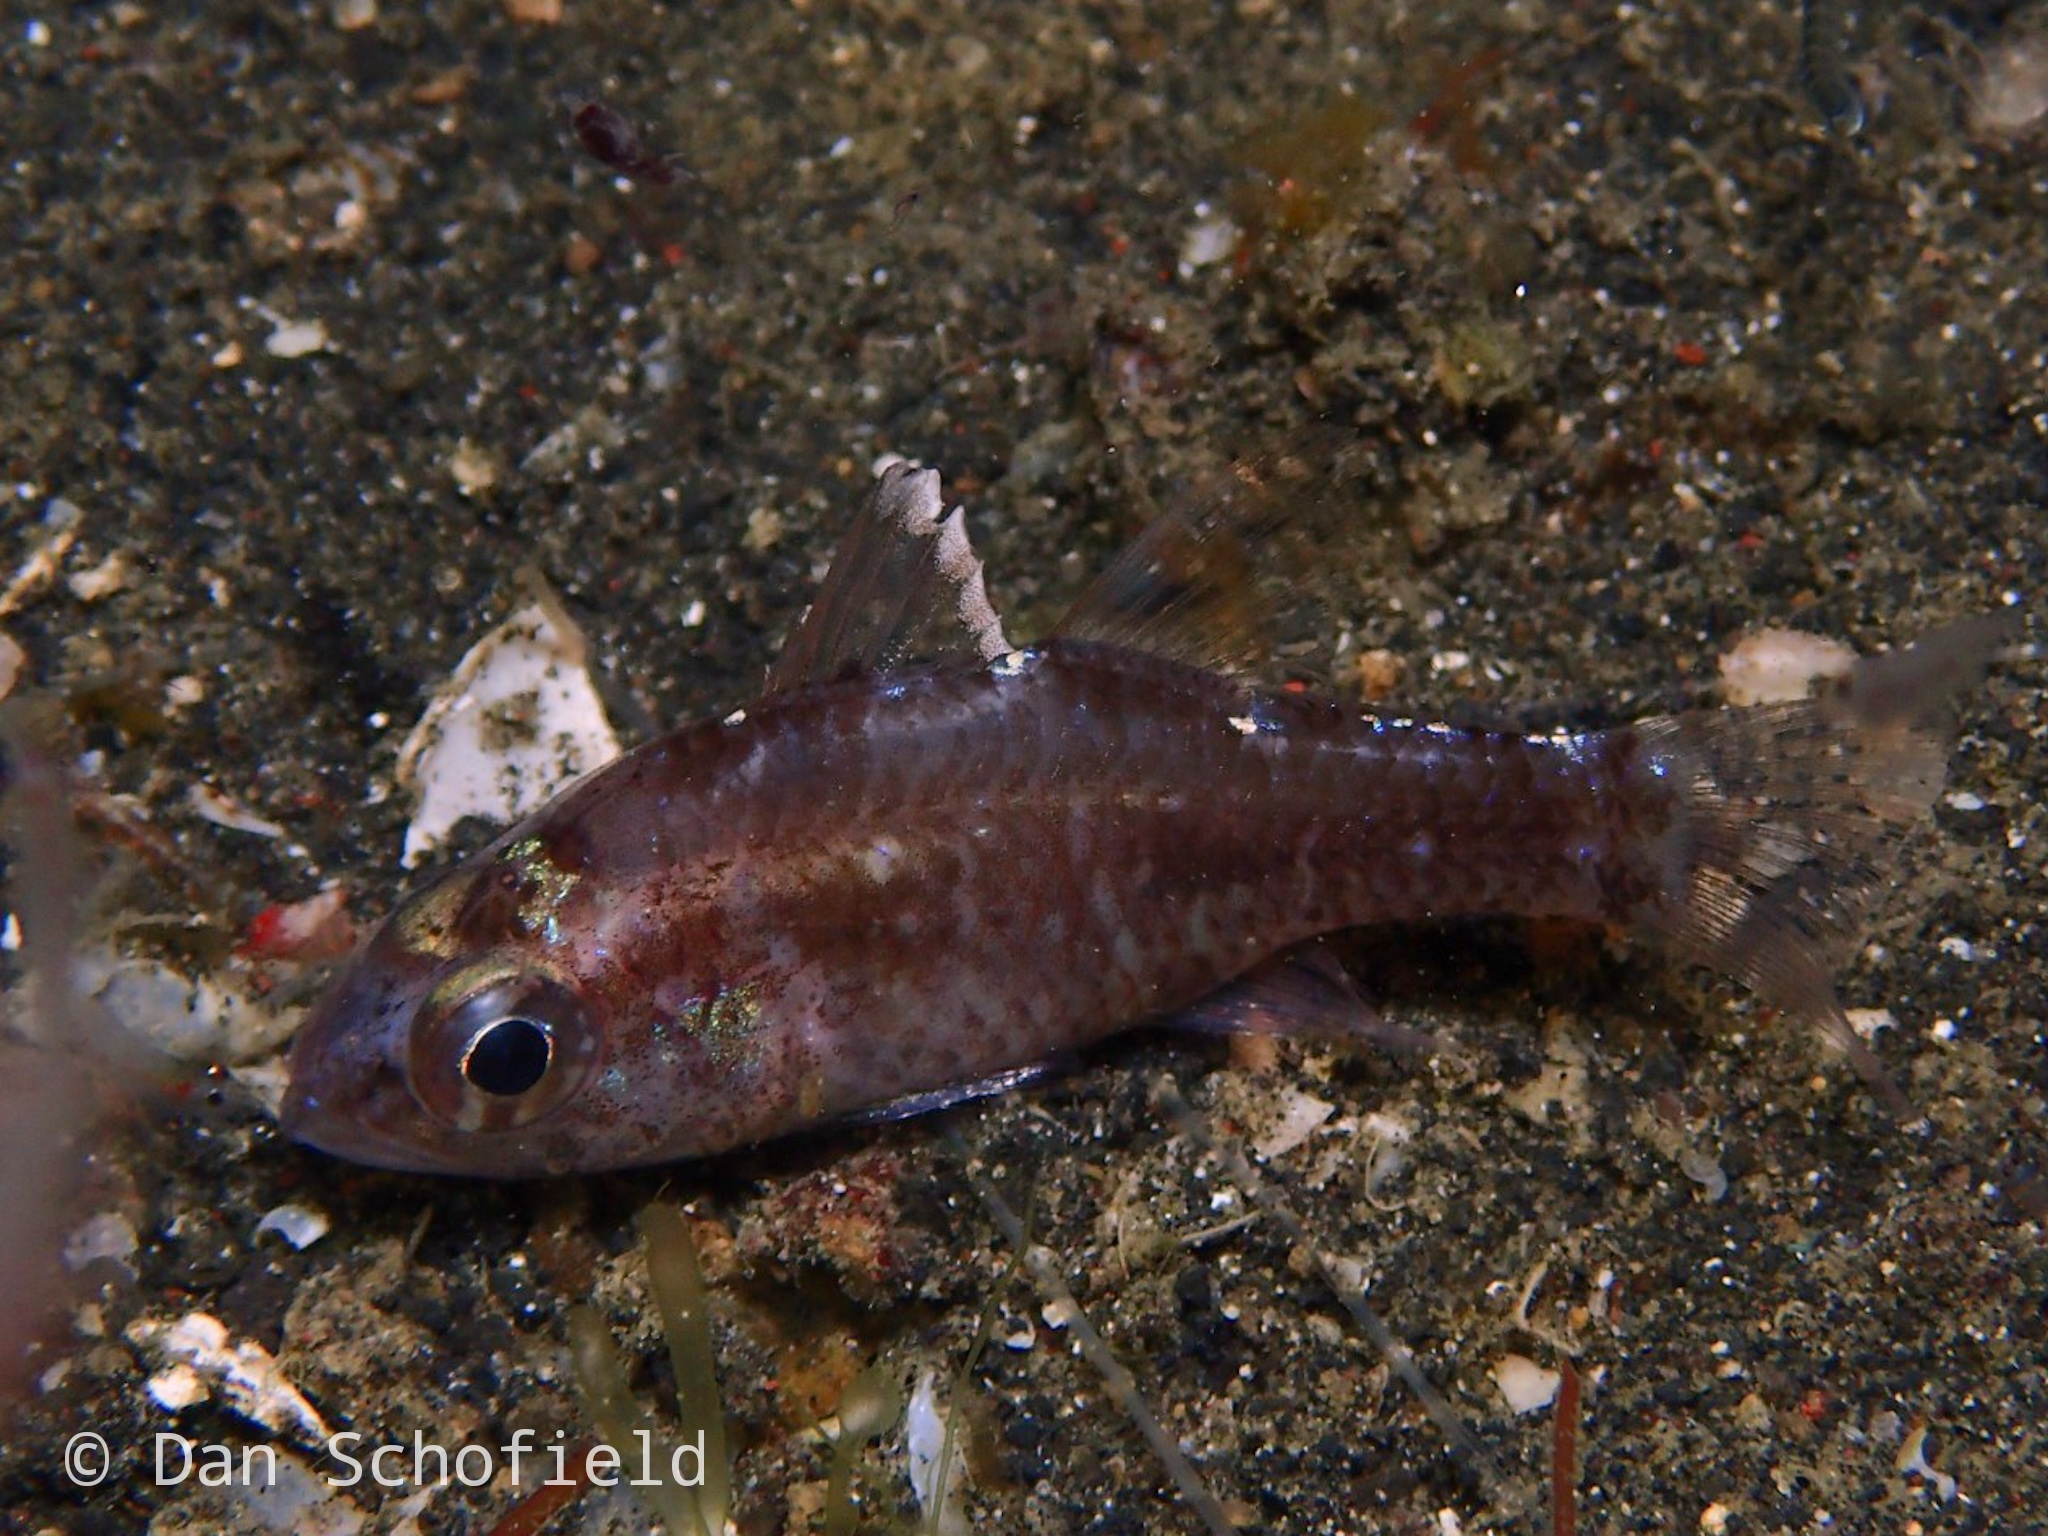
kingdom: Animalia
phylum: Chordata
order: Perciformes
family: Apogonidae
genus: Ostorhinchus
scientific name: Ostorhinchus hoevenii
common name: Flag-fin cardinal
